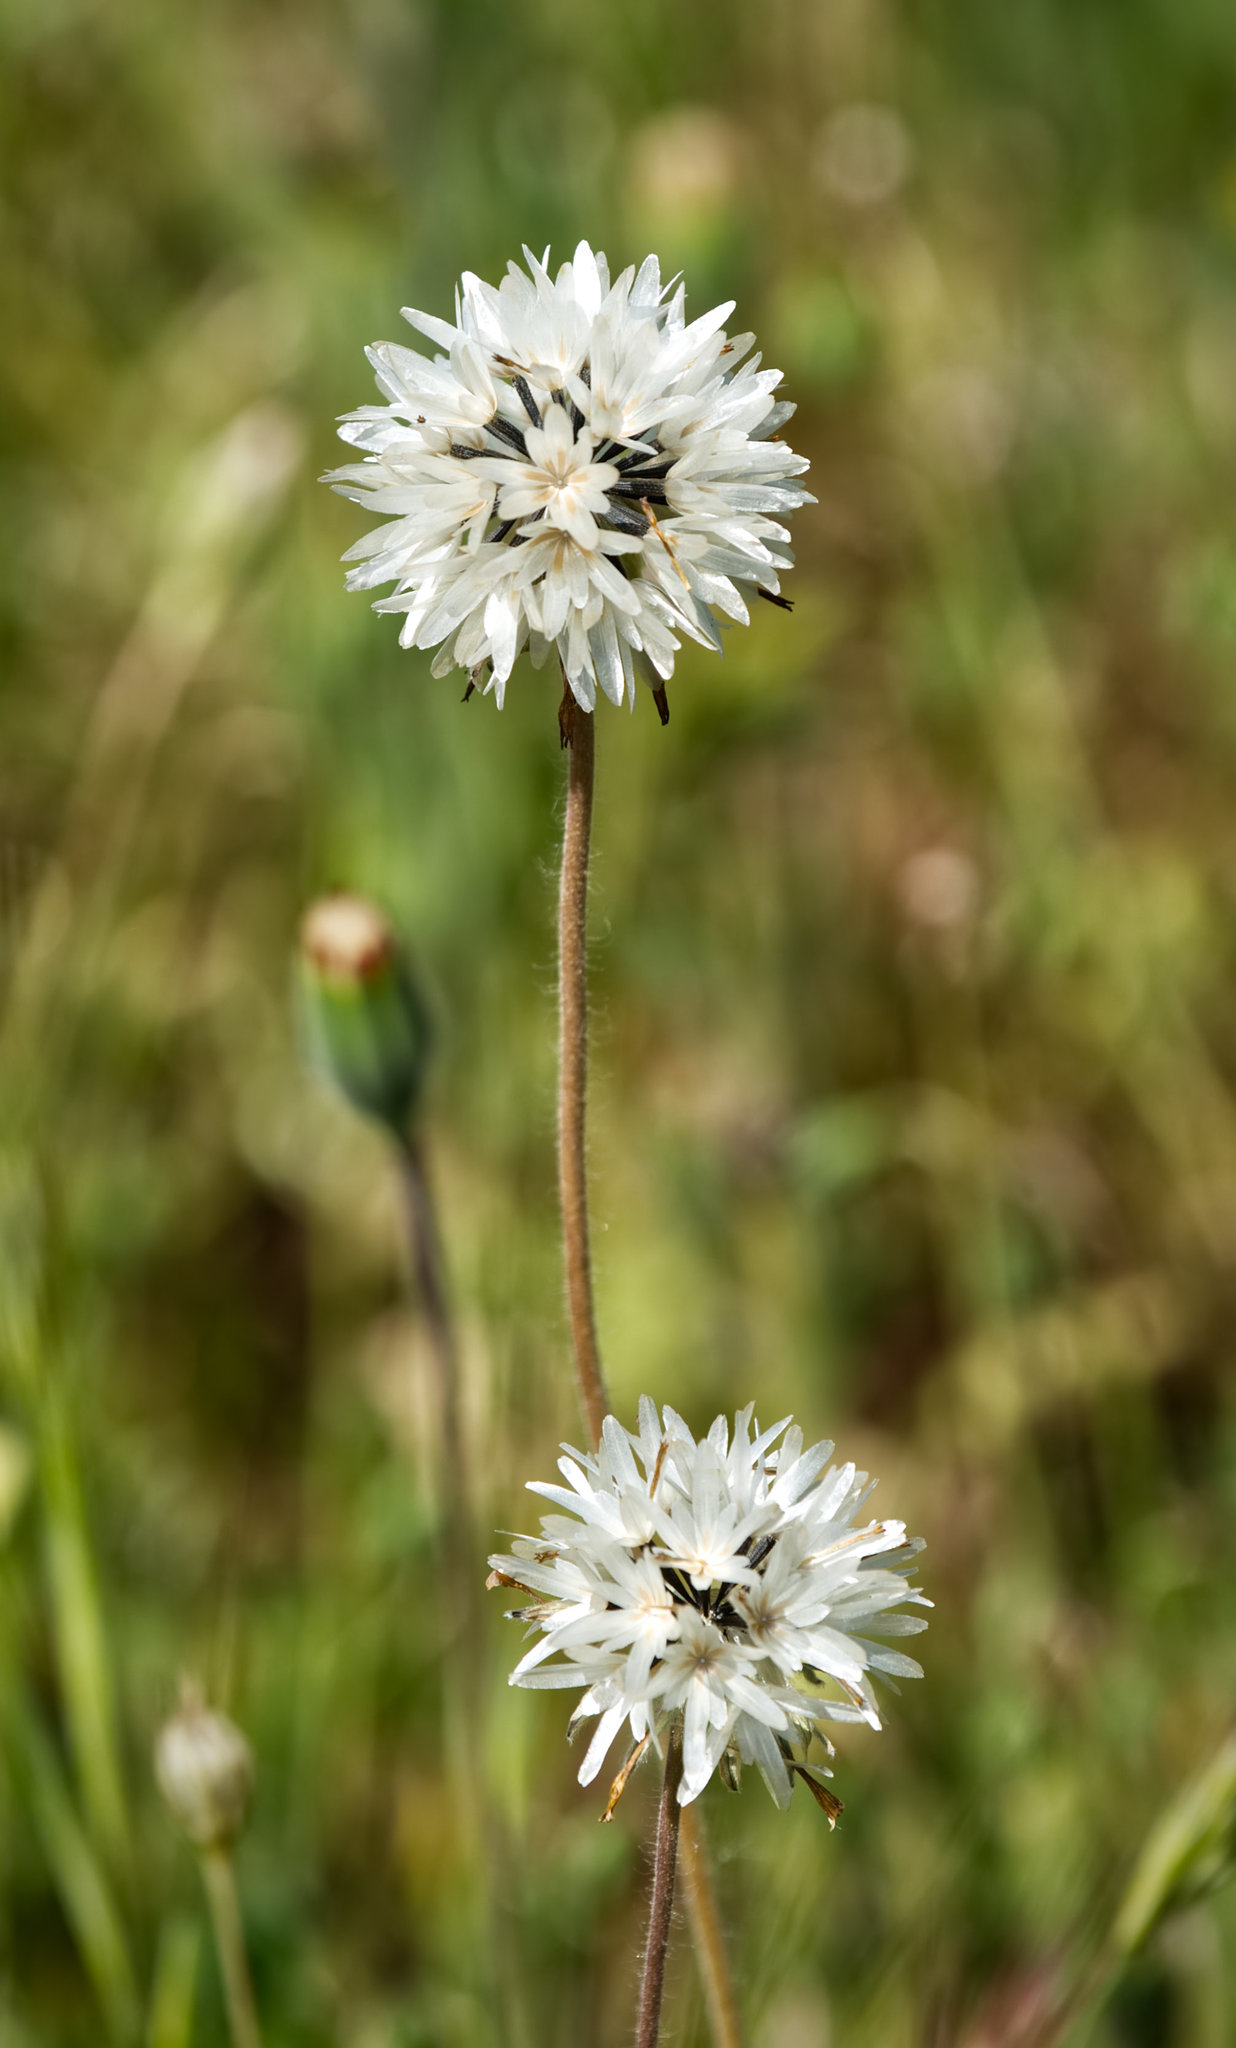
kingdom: Plantae
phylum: Tracheophyta
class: Magnoliopsida
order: Asterales
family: Asteraceae
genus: Achyrachaena
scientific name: Achyrachaena mollis
